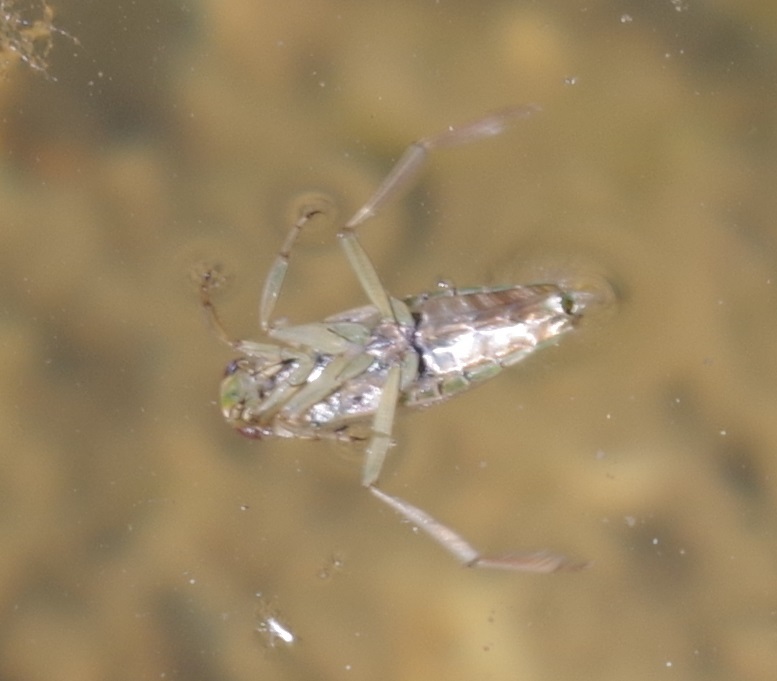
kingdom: Animalia
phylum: Arthropoda
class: Insecta
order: Hemiptera
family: Notonectidae
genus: Notonecta
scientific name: Notonecta
